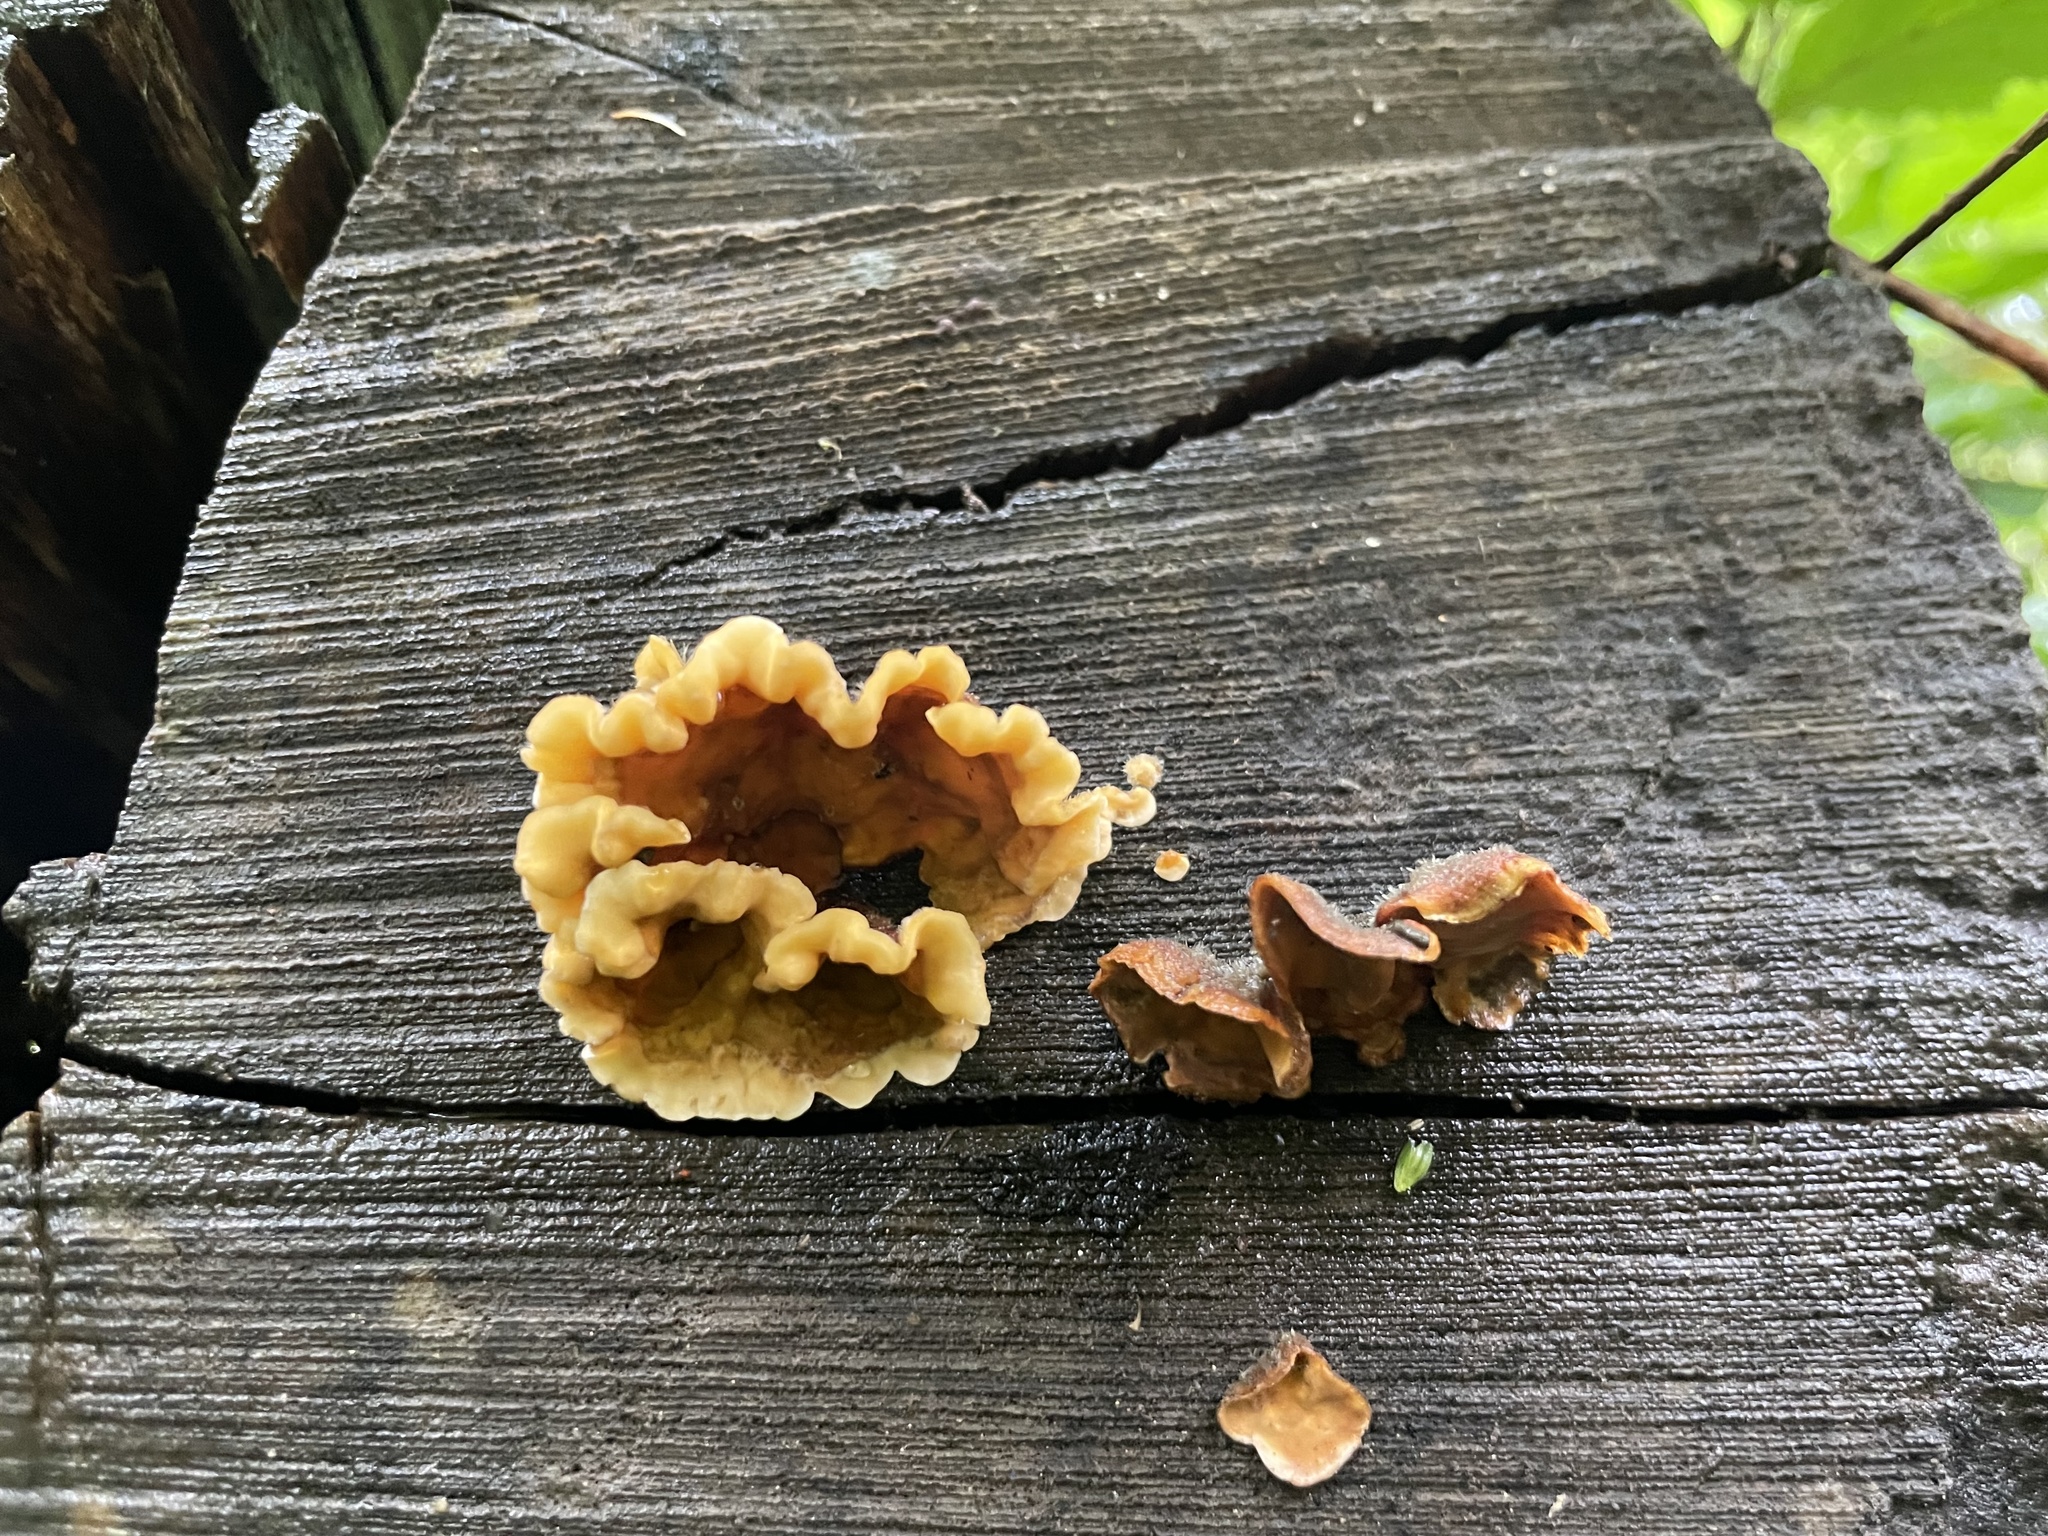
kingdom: Fungi
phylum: Basidiomycota
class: Agaricomycetes
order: Russulales
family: Stereaceae
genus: Stereum
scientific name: Stereum hirsutum
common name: Hairy curtain crust
